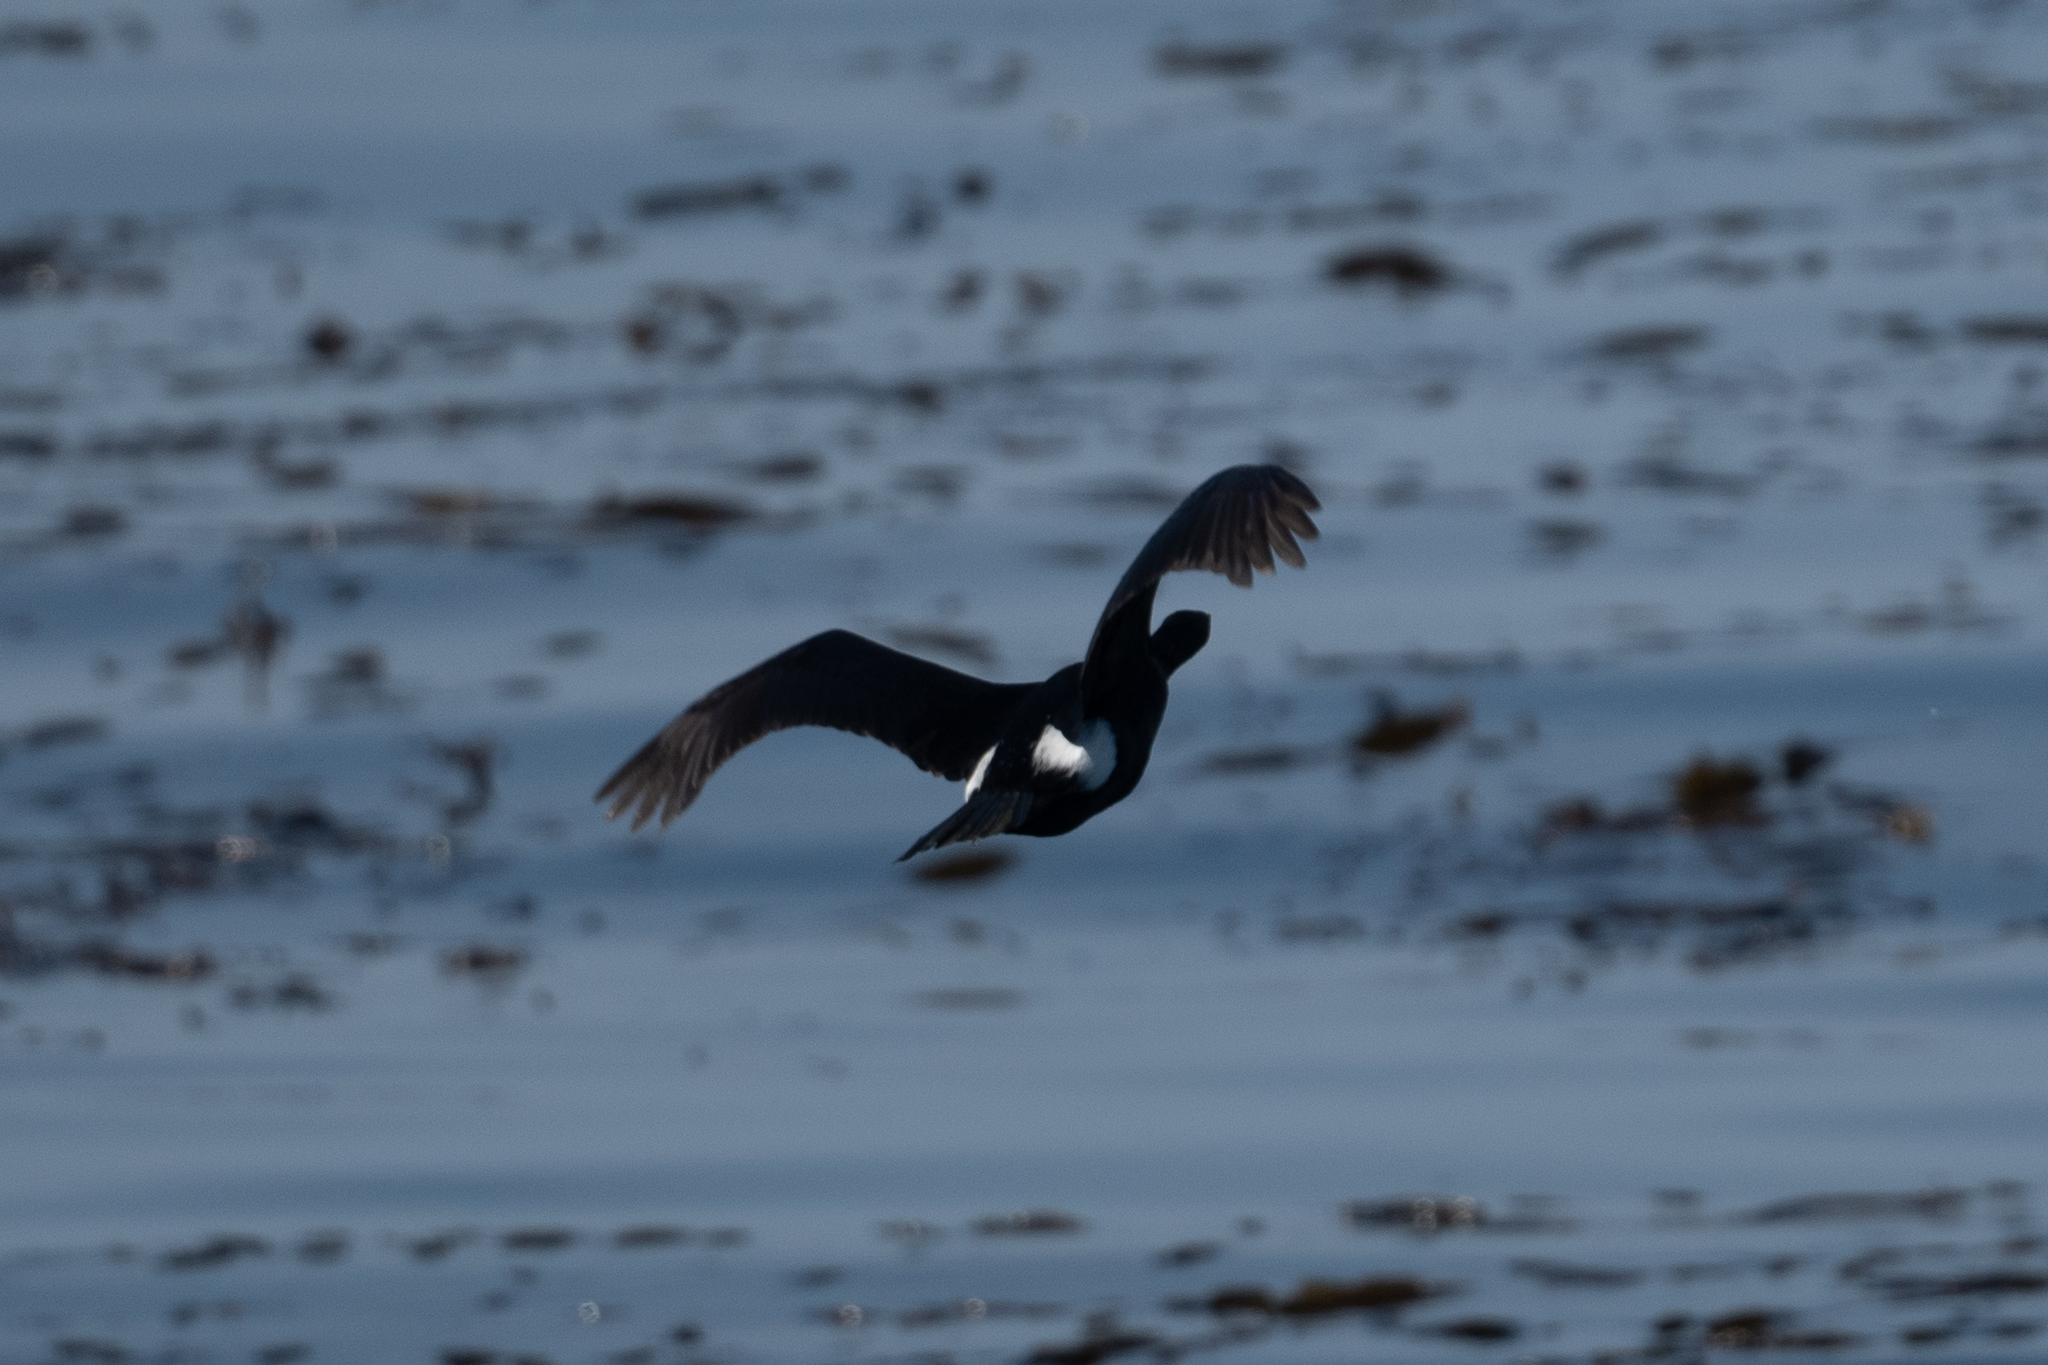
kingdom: Animalia
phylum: Chordata
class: Aves
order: Suliformes
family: Phalacrocoracidae
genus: Phalacrocorax
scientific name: Phalacrocorax pelagicus
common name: Pelagic cormorant
